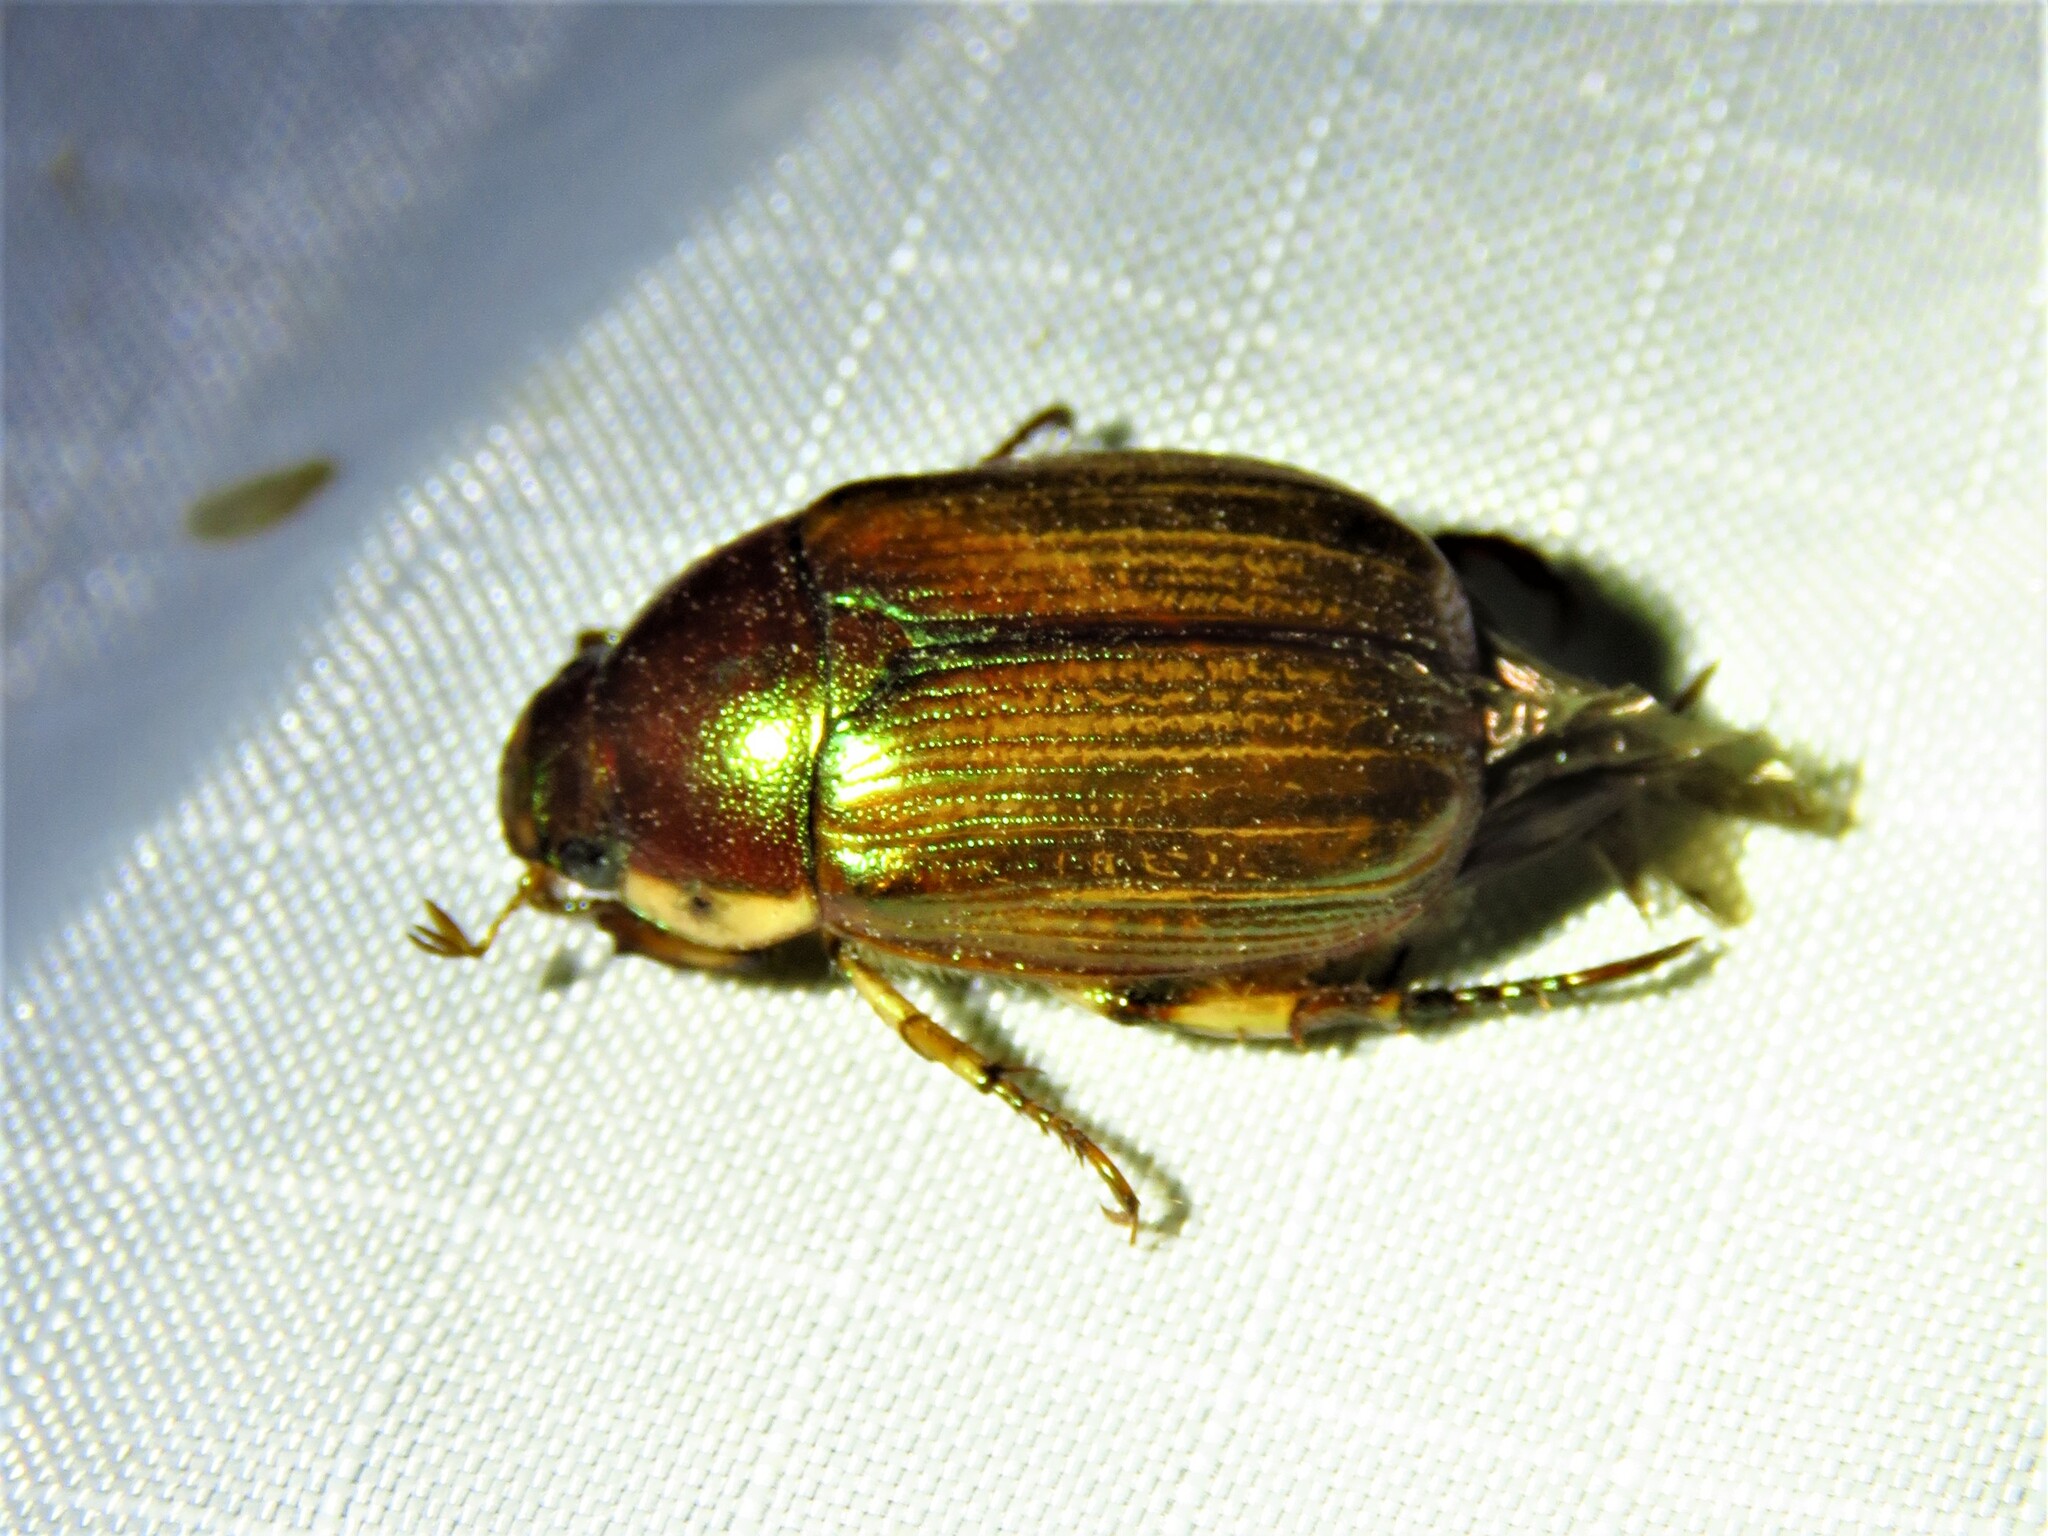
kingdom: Animalia
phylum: Arthropoda
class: Insecta
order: Coleoptera
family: Scarabaeidae
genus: Callistethus
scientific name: Callistethus marginatus
